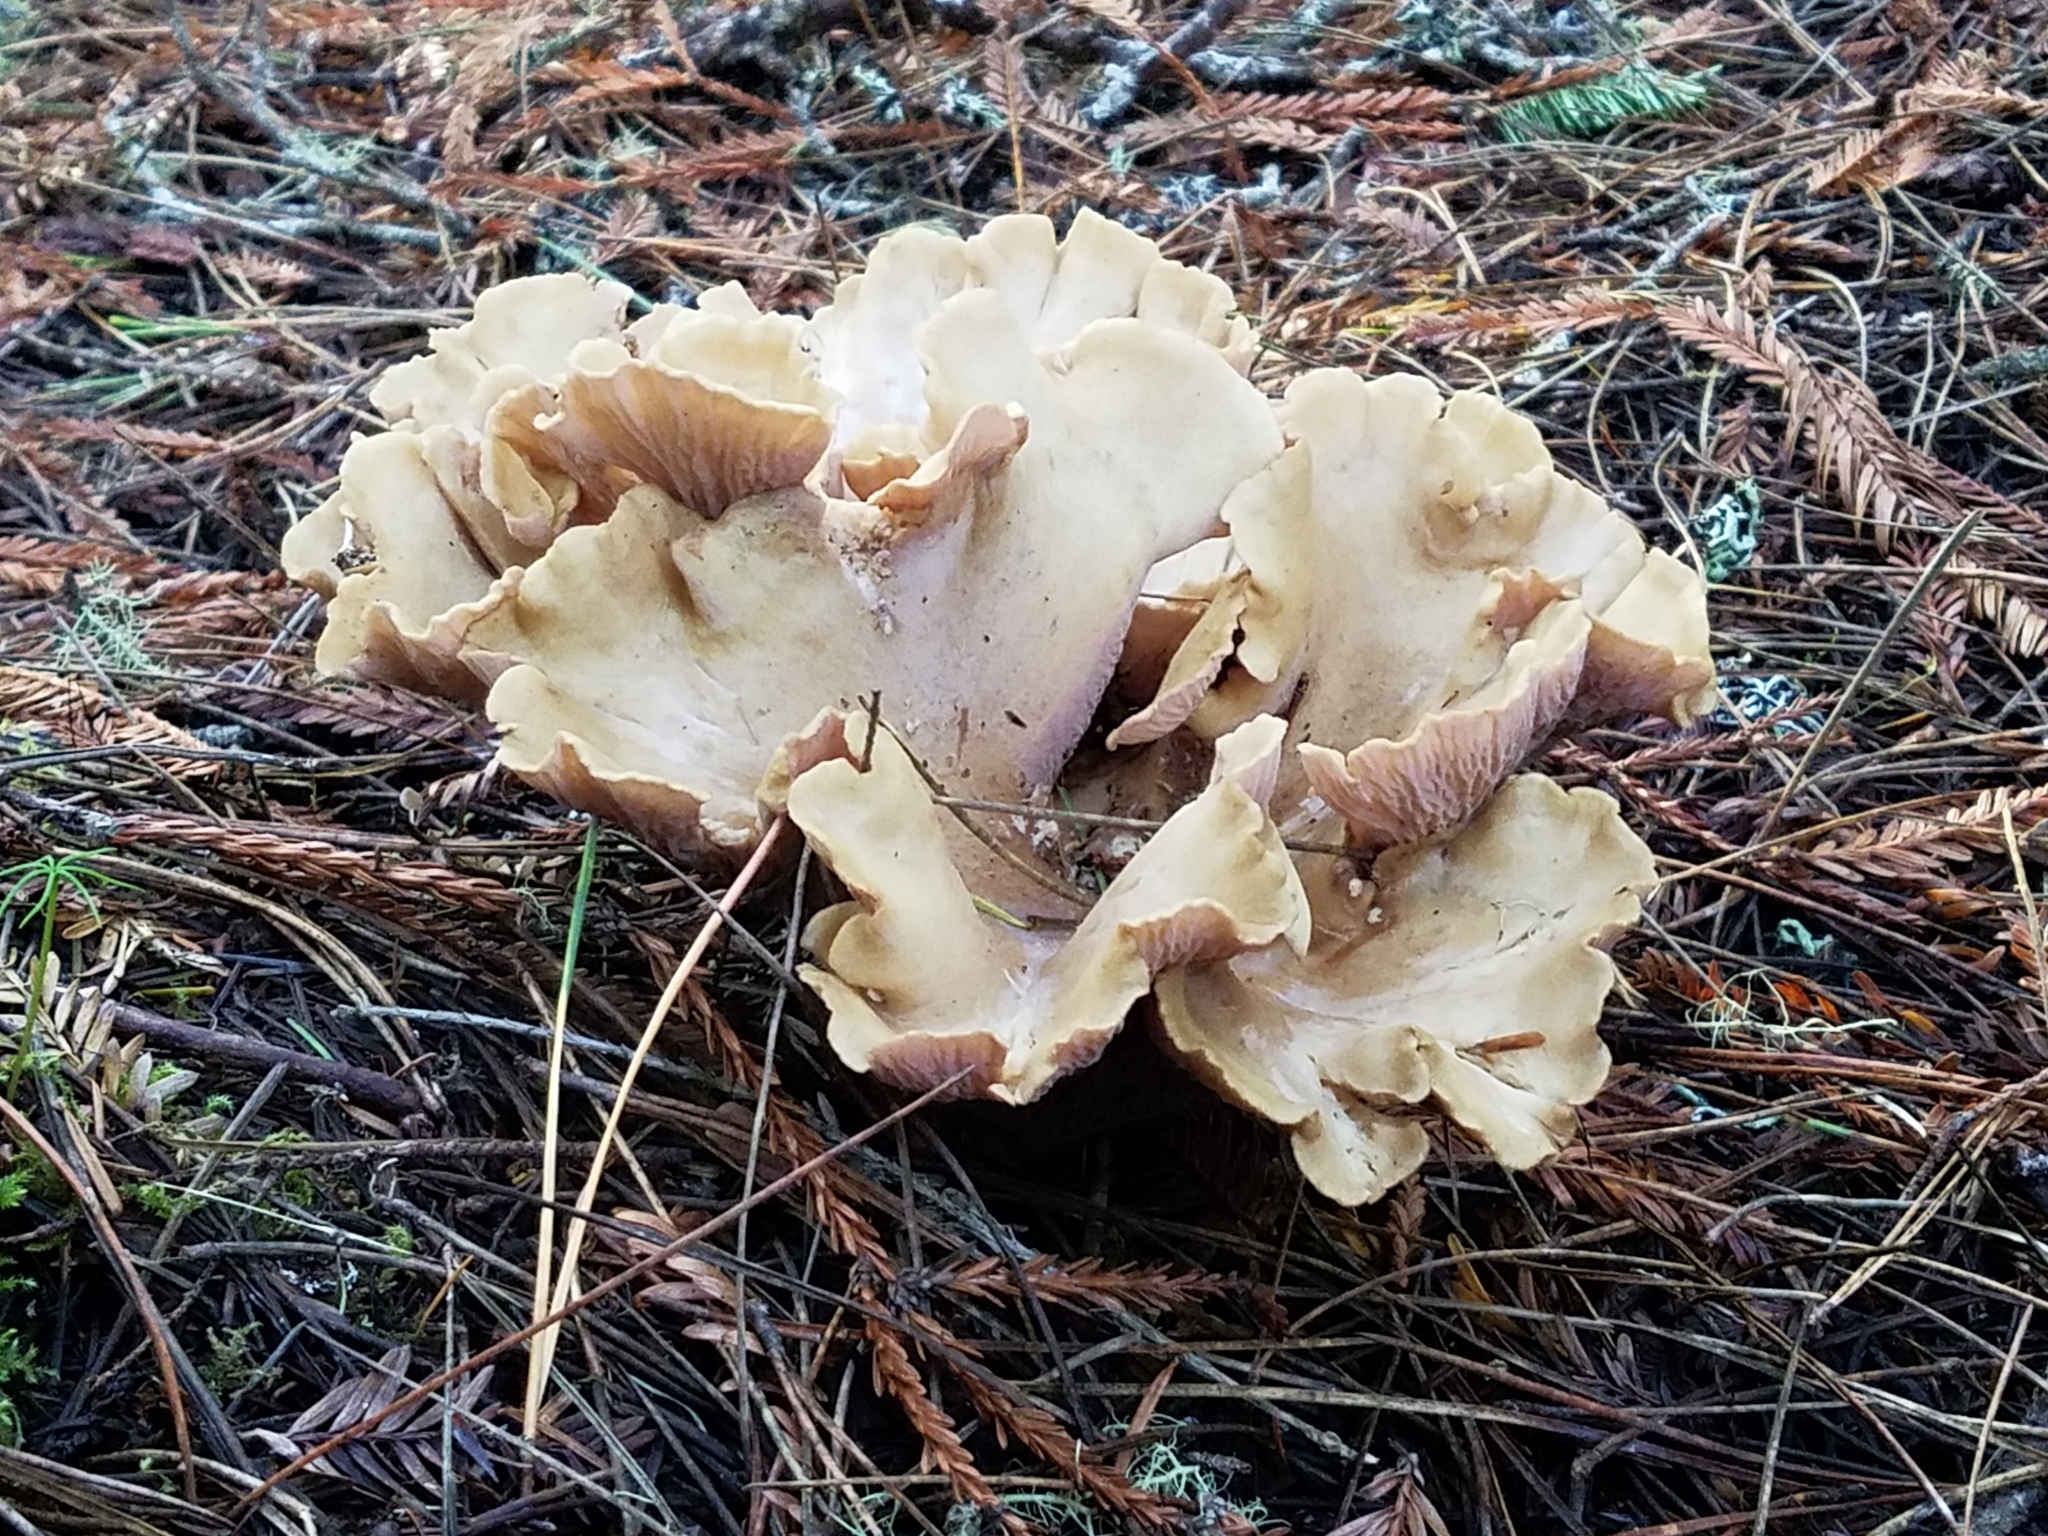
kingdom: Fungi
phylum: Basidiomycota
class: Agaricomycetes
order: Gomphales
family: Gomphaceae
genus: Gomphus
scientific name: Gomphus clavatus
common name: Pig's ear
